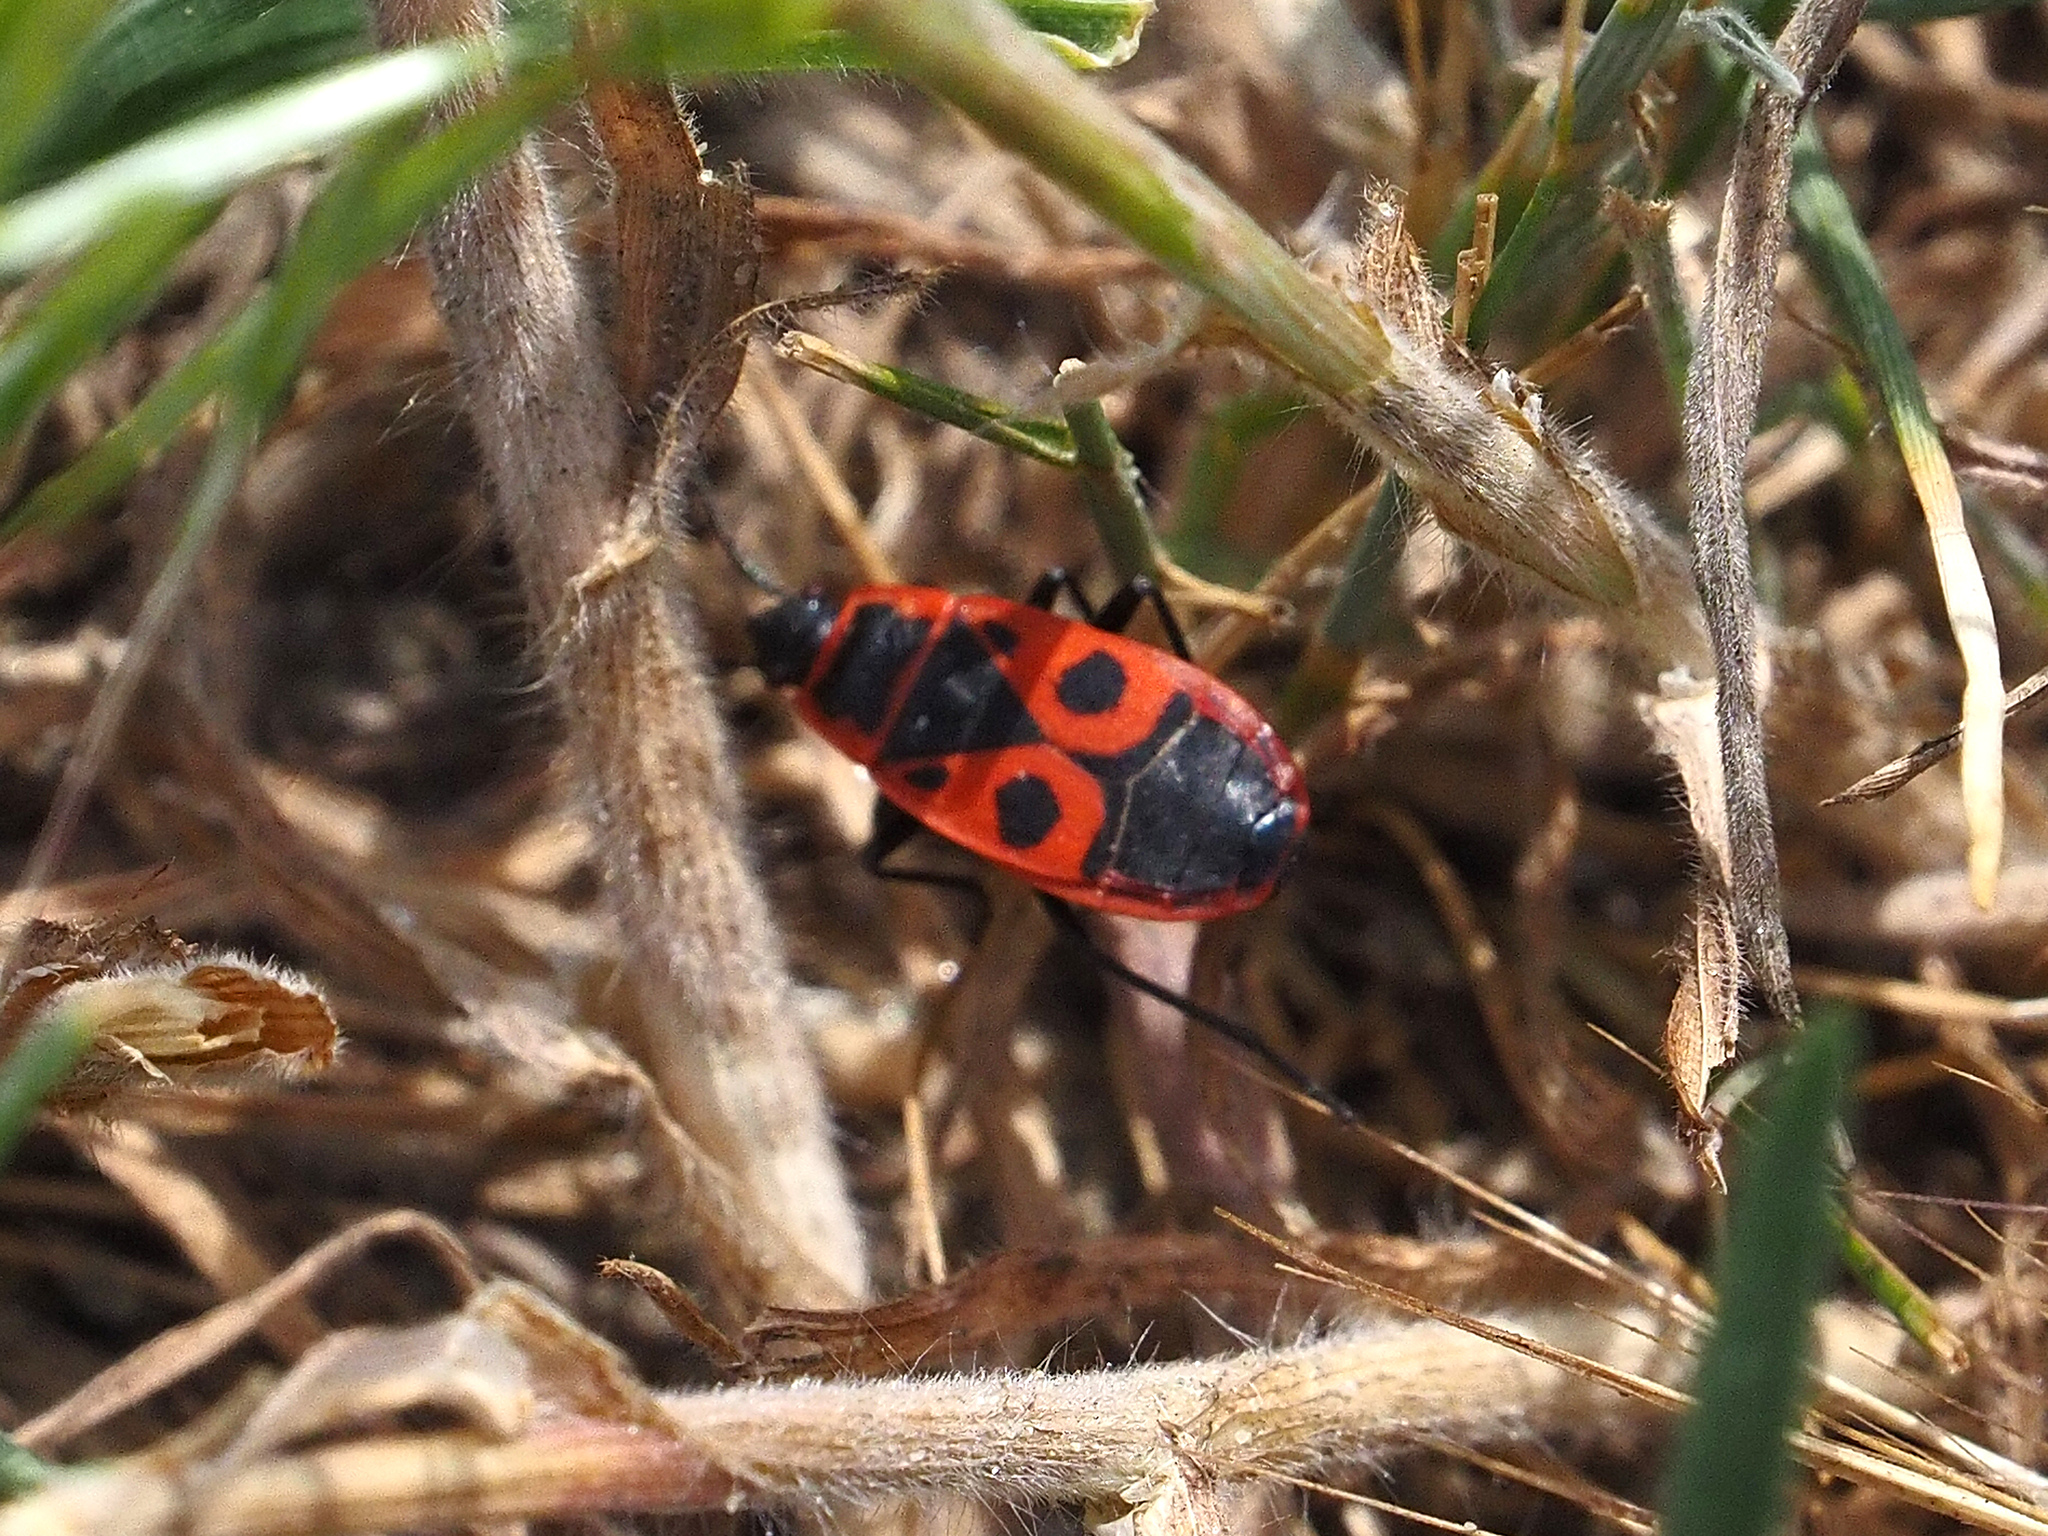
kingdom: Animalia
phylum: Arthropoda
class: Insecta
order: Hemiptera
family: Pyrrhocoridae
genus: Pyrrhocoris
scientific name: Pyrrhocoris apterus
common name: Firebug
